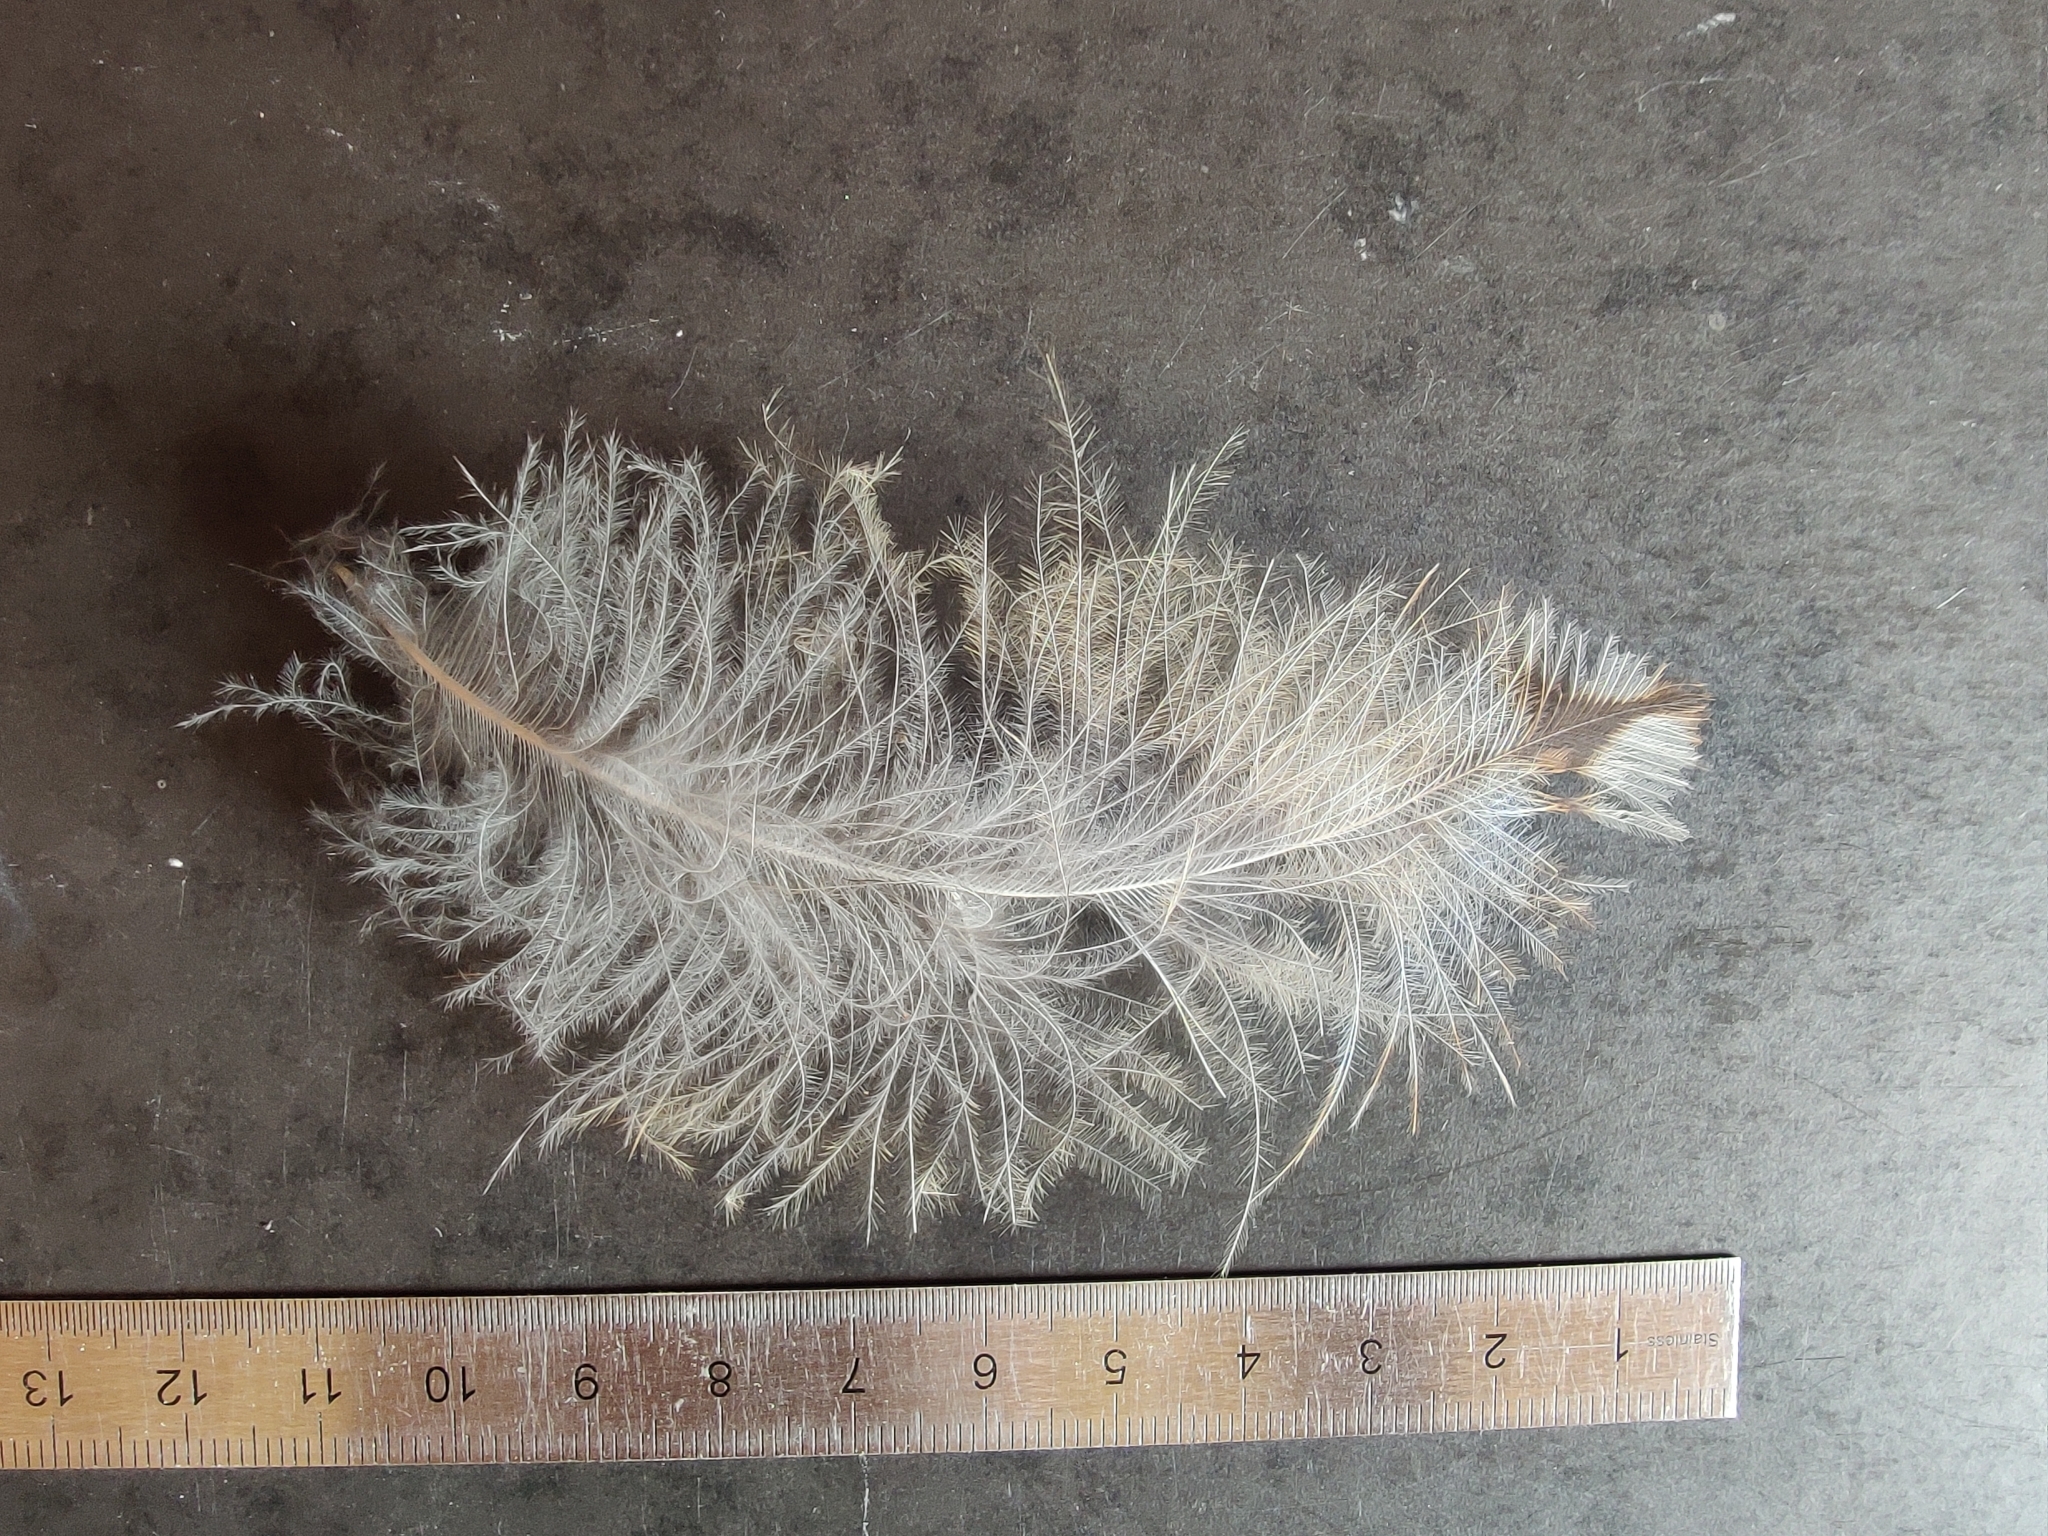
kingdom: Animalia
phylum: Chordata
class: Aves
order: Strigiformes
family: Strigidae
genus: Strix
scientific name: Strix aluco
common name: Tawny owl
